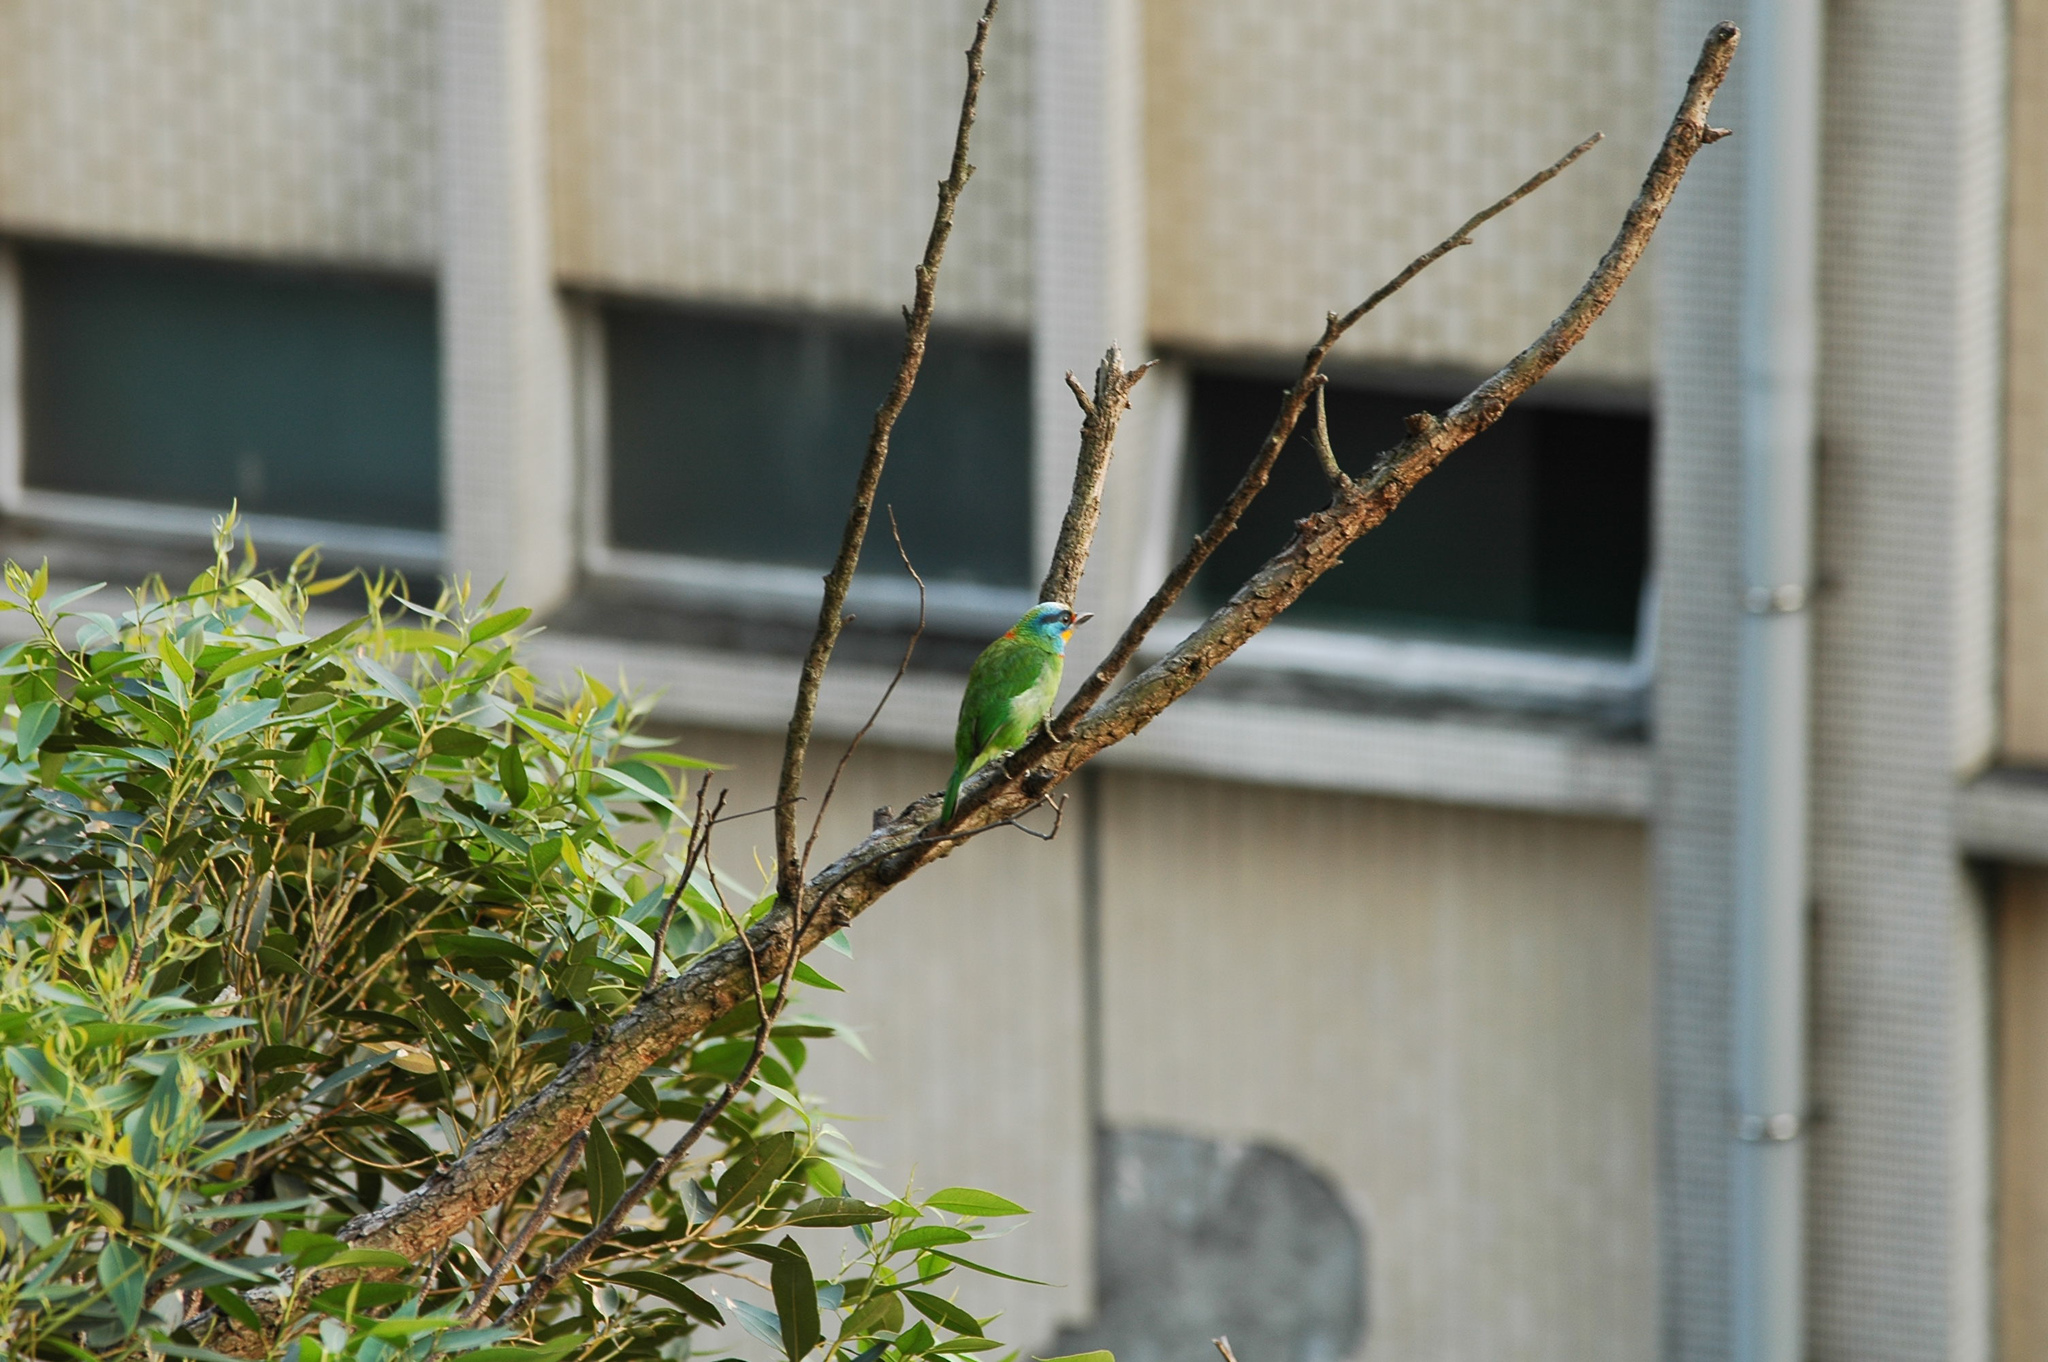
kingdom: Animalia
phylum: Chordata
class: Aves
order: Piciformes
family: Megalaimidae
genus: Psilopogon
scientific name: Psilopogon nuchalis
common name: Taiwan barbet
